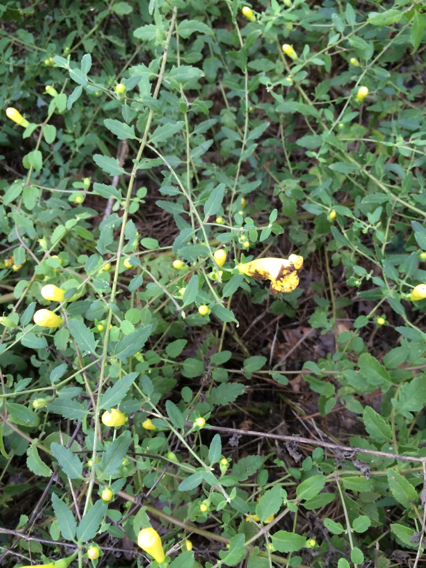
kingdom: Plantae
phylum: Tracheophyta
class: Magnoliopsida
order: Lamiales
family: Orobanchaceae
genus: Aureolaria
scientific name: Aureolaria grandiflora
